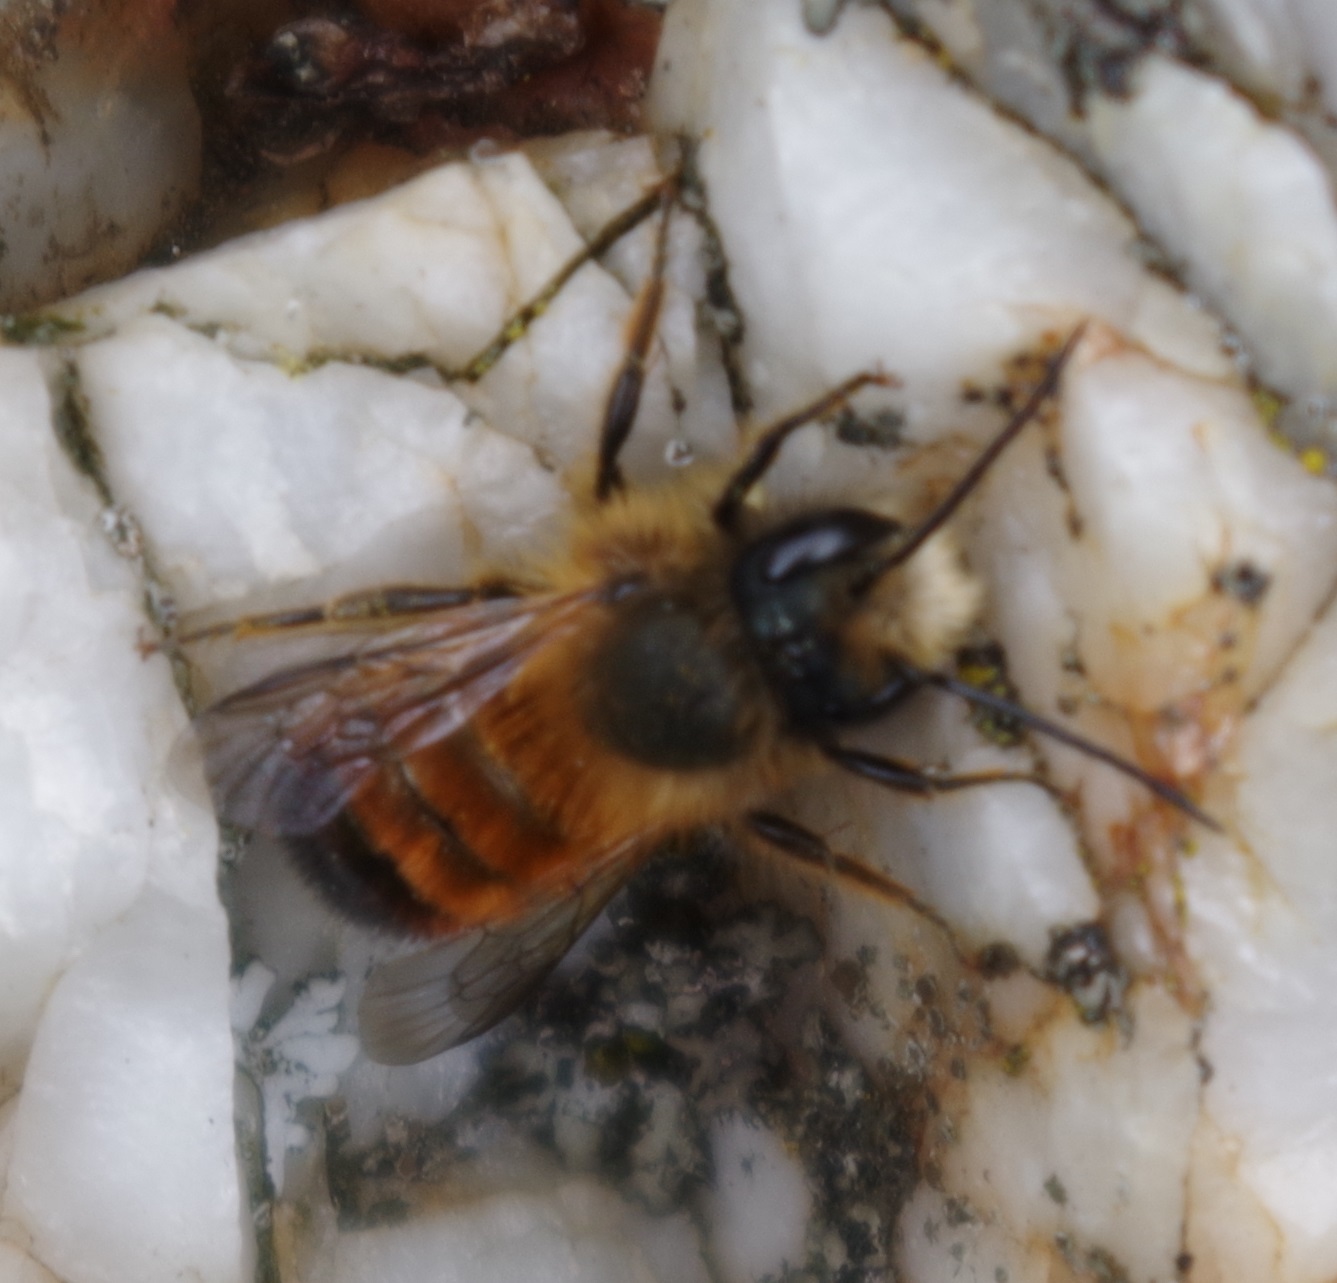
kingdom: Animalia
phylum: Arthropoda
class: Insecta
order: Hymenoptera
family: Megachilidae
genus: Osmia
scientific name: Osmia bicornis
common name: Red mason bee
